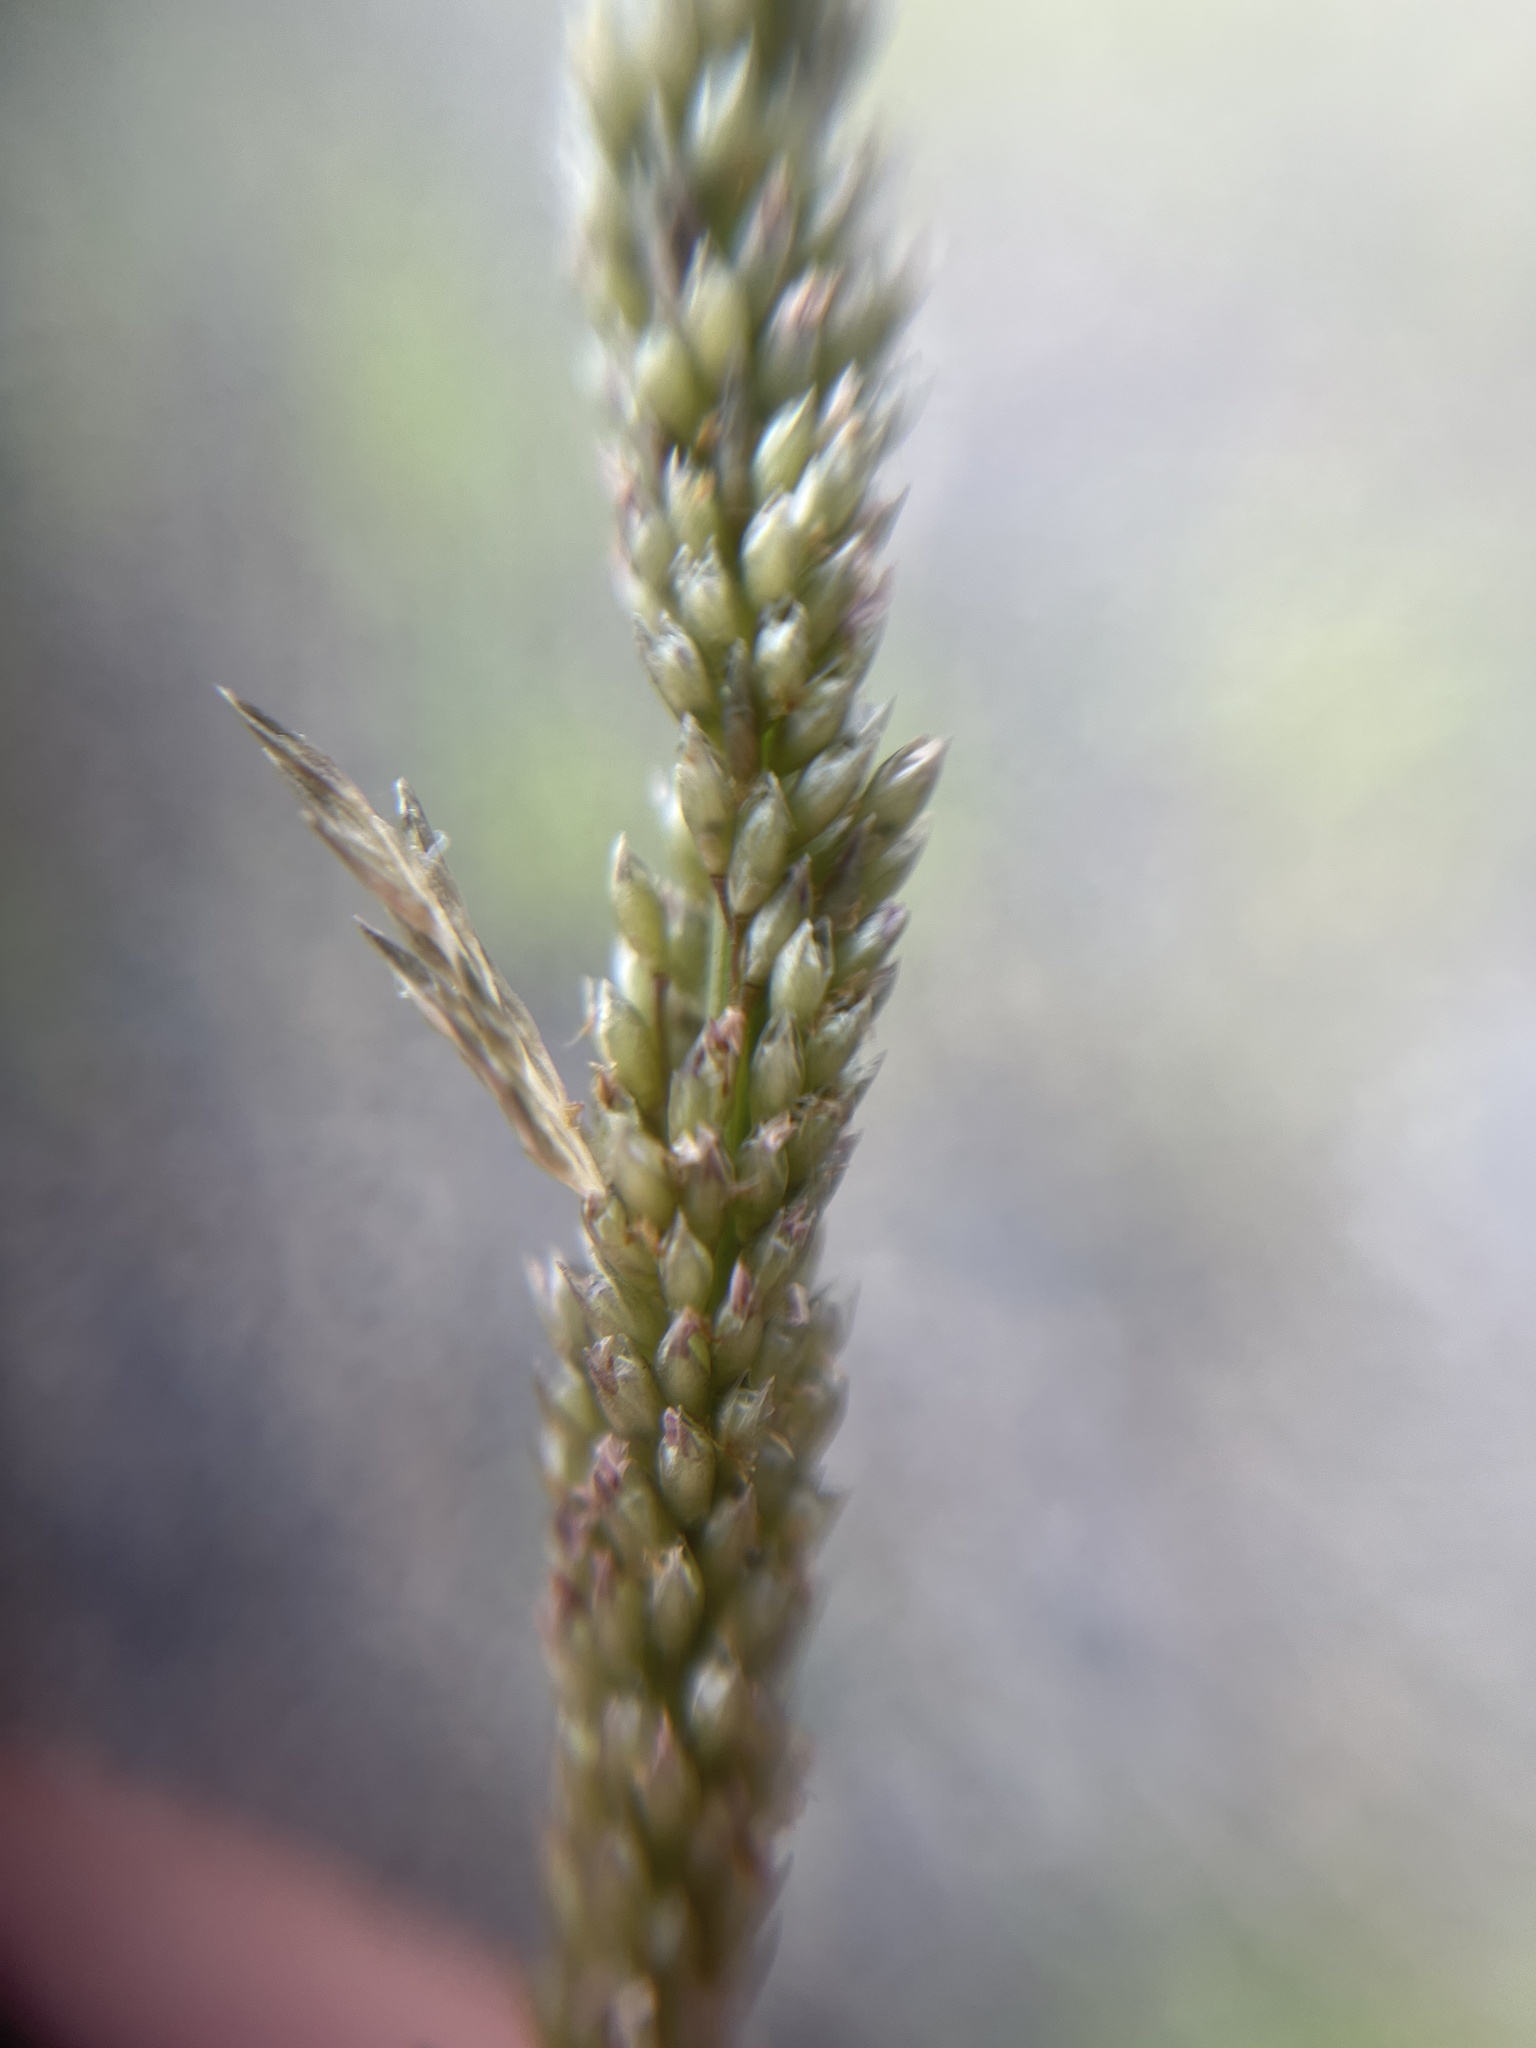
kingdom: Plantae
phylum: Tracheophyta
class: Liliopsida
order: Poales
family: Poaceae
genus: Sporobolus
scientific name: Sporobolus indicus
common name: Smut grass
